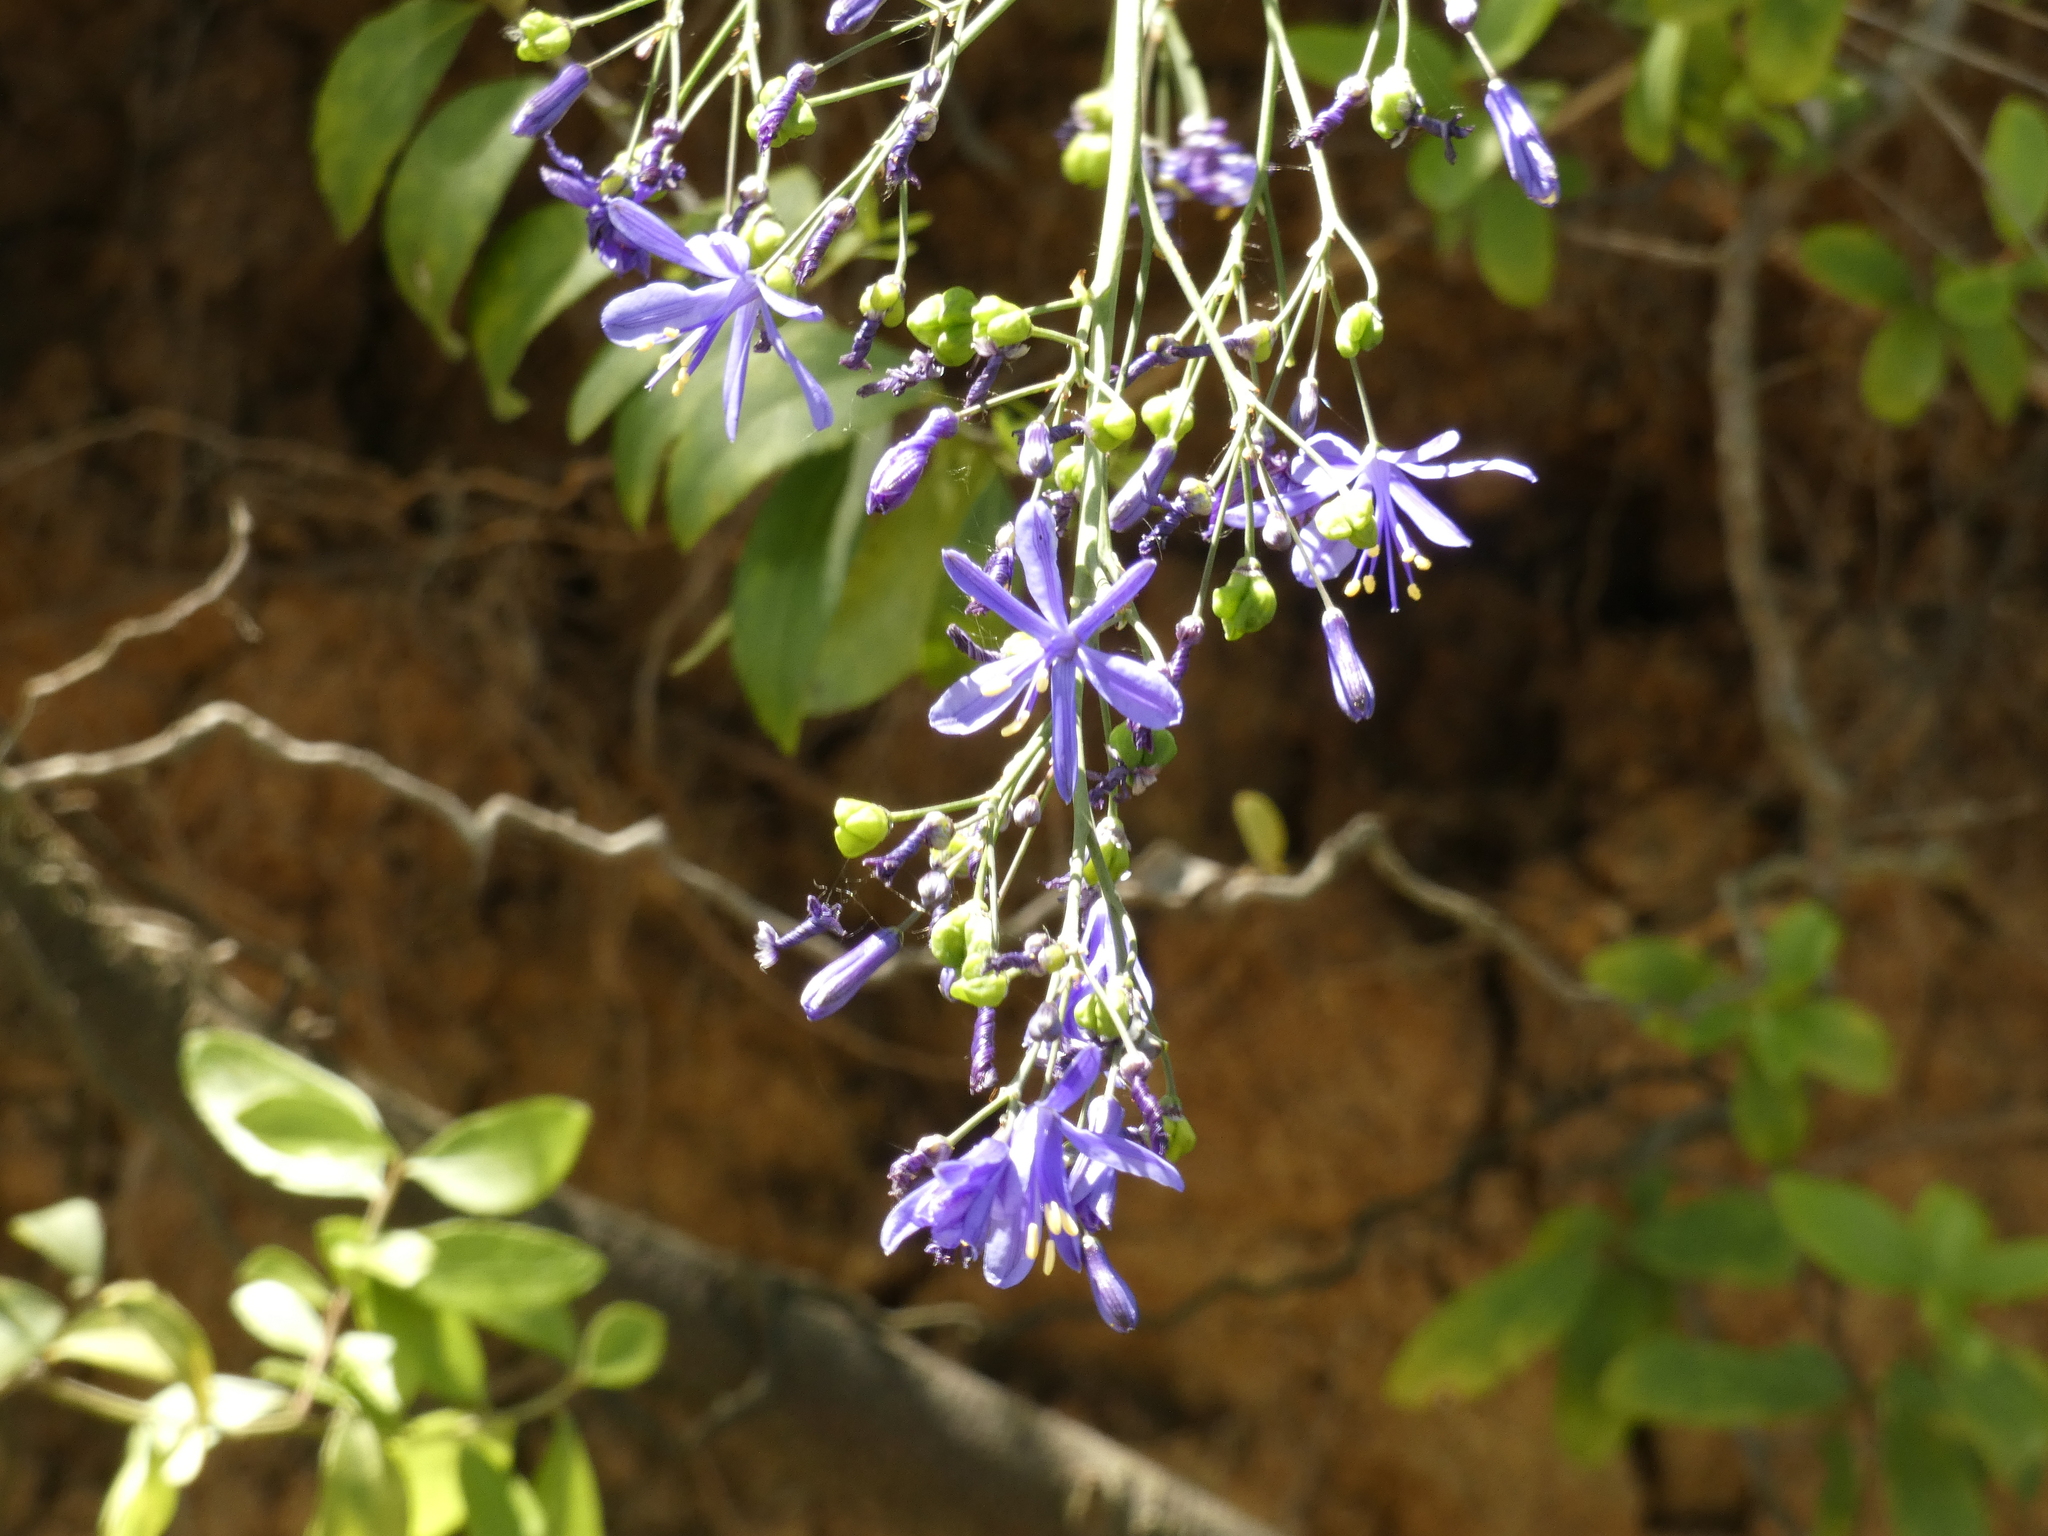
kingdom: Plantae
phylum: Tracheophyta
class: Liliopsida
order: Asparagales
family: Asphodelaceae
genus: Pasithea
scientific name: Pasithea caerulea
